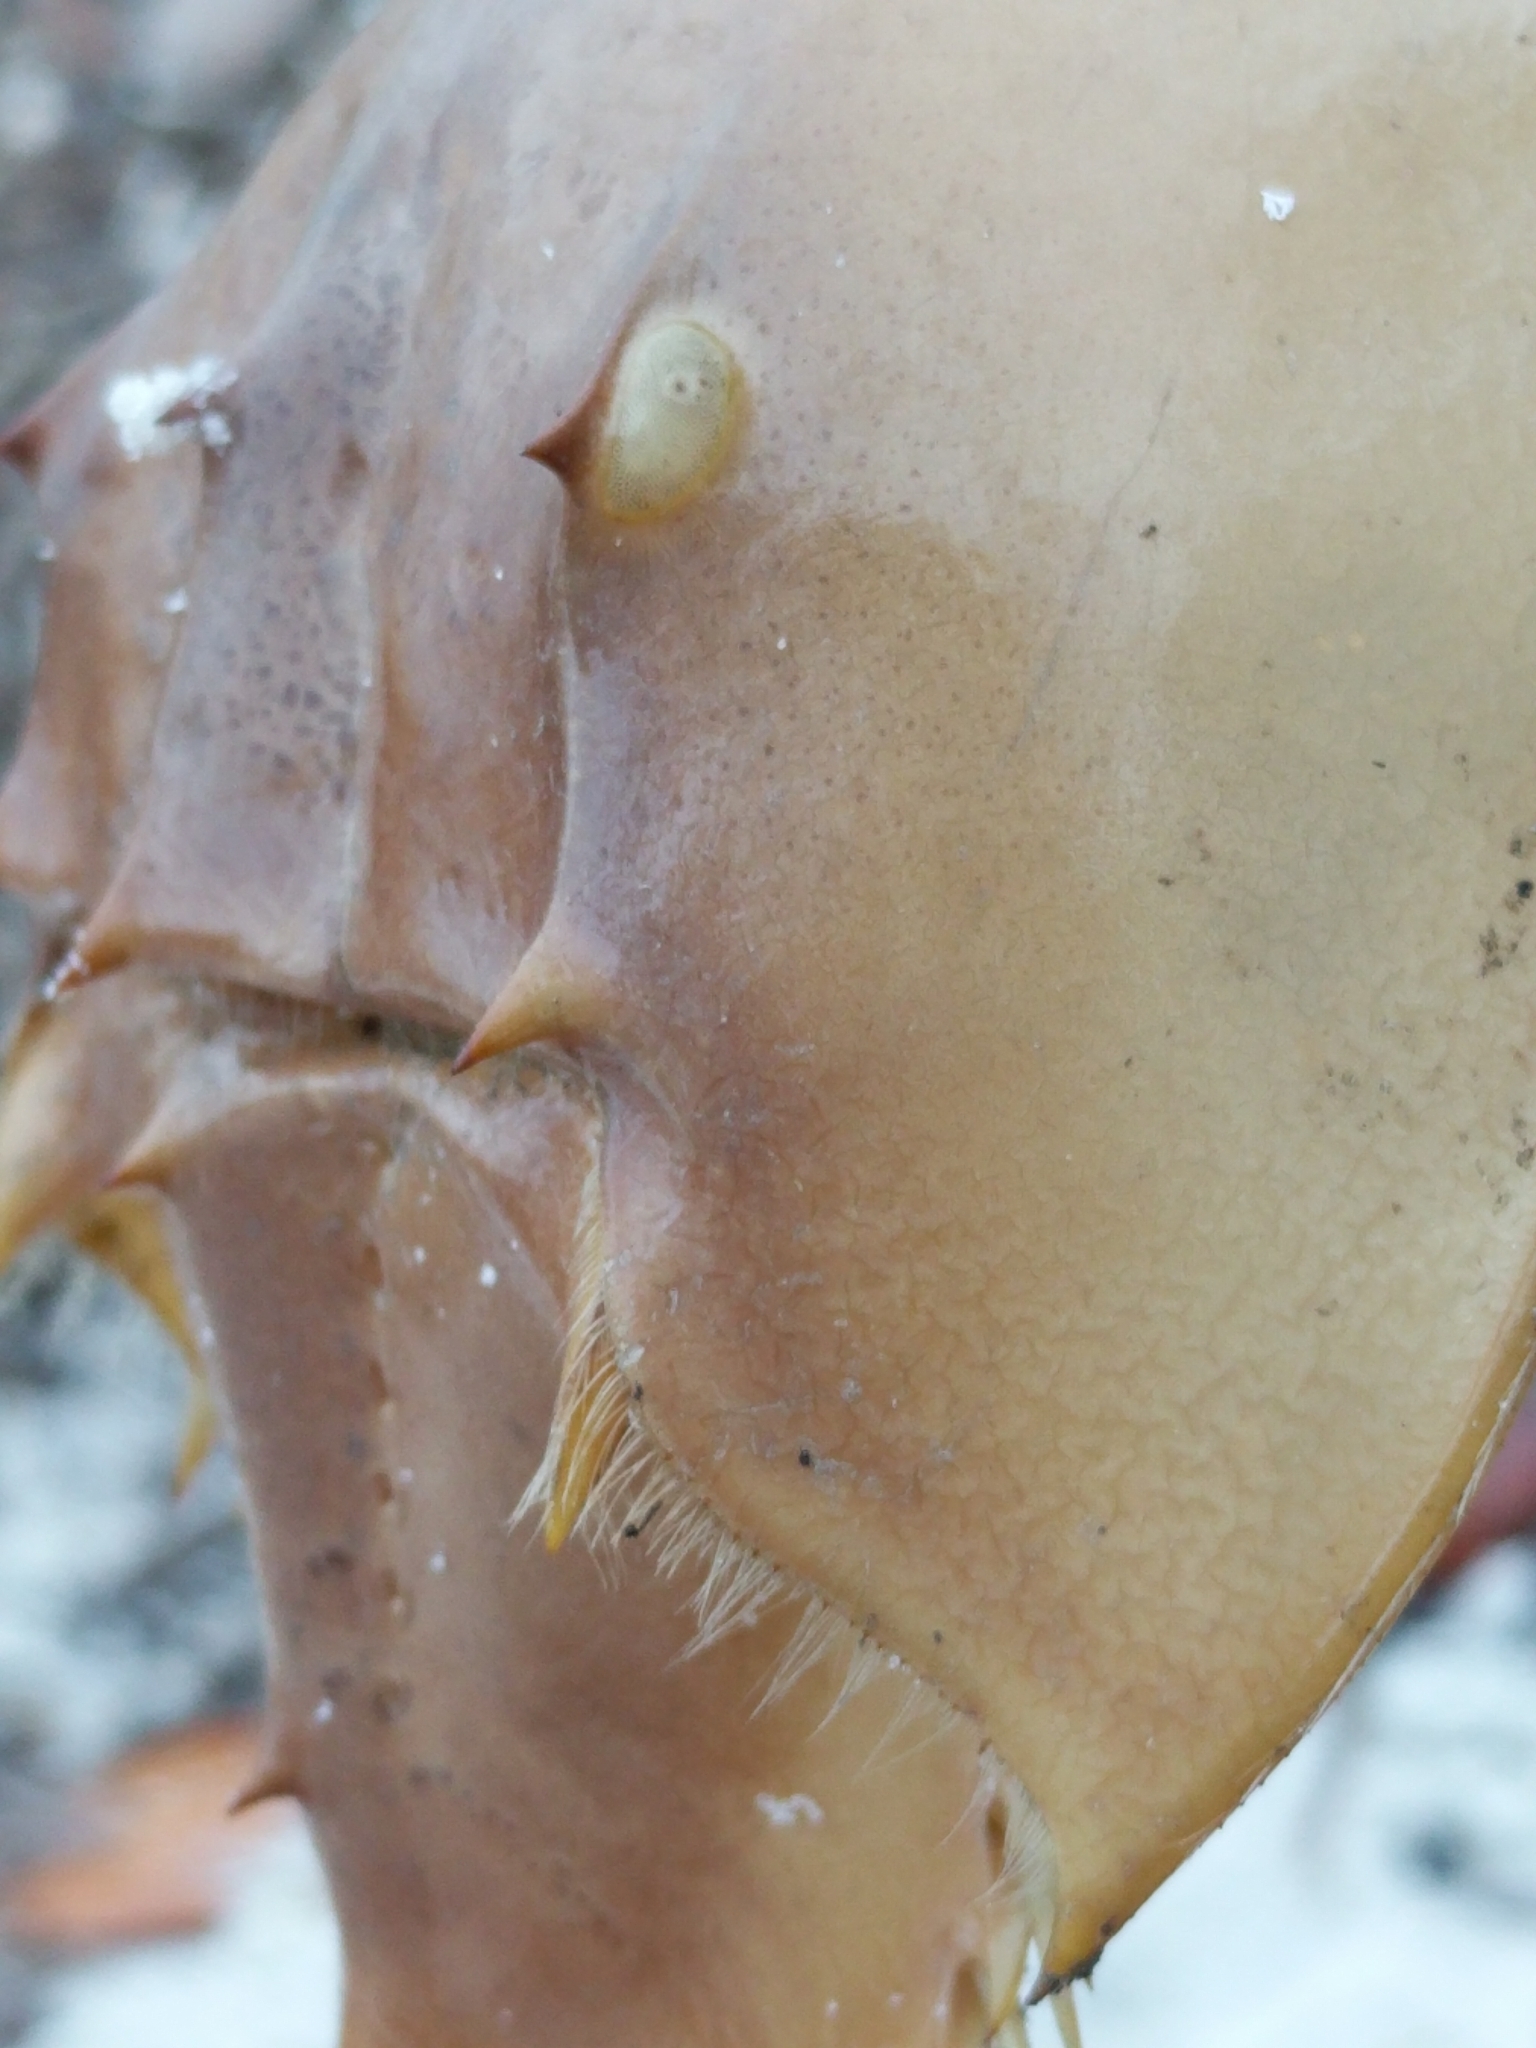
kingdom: Animalia
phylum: Arthropoda
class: Merostomata
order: Xiphosurida
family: Limulidae
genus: Limulus
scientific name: Limulus polyphemus
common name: Horseshoe crab
